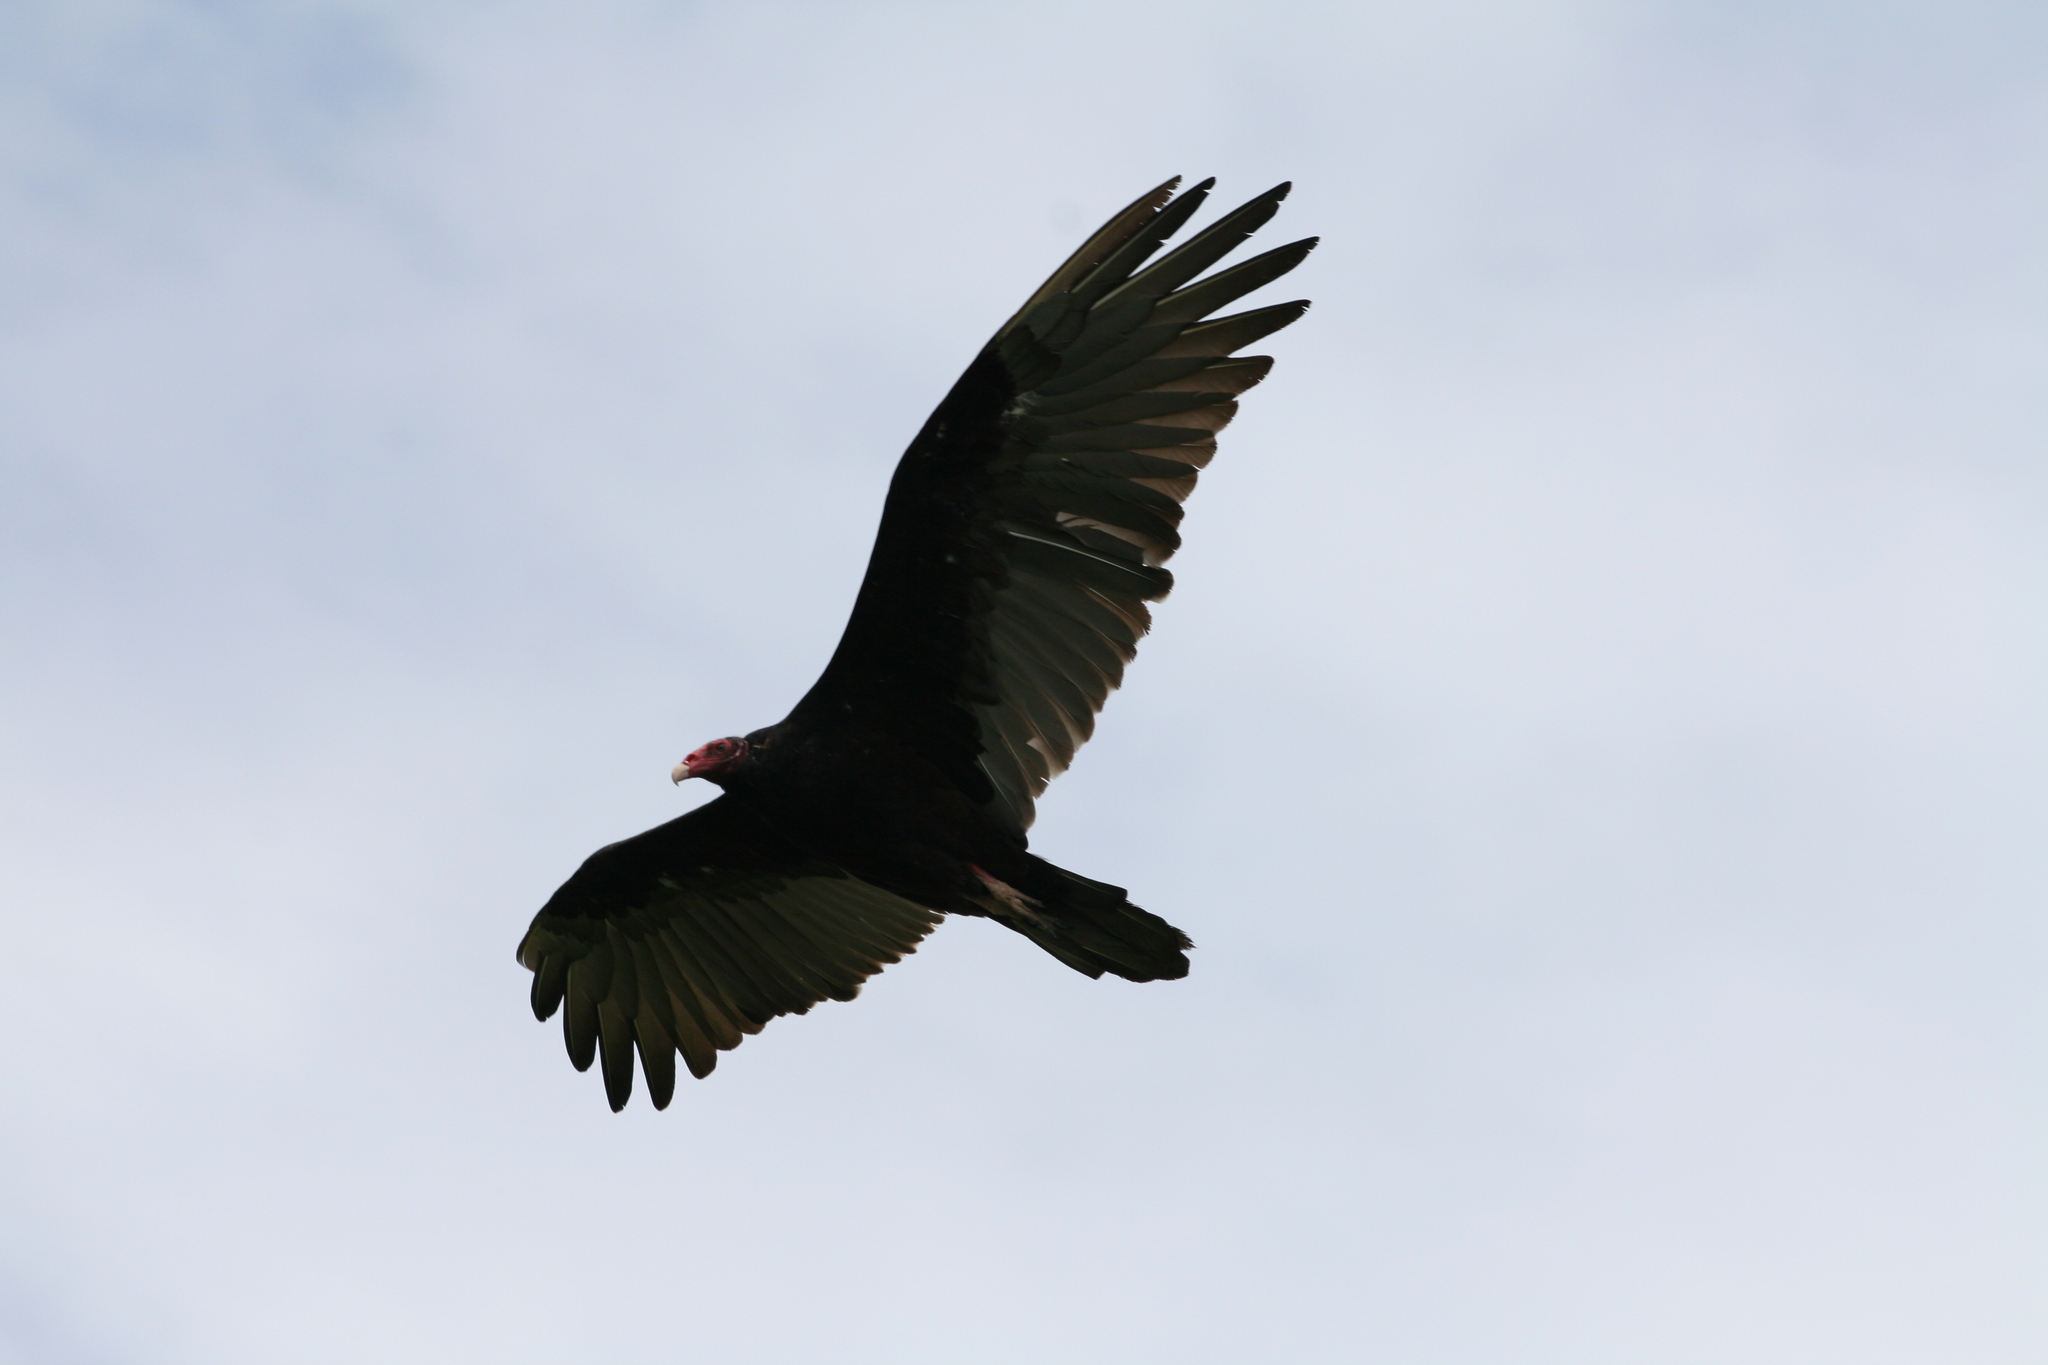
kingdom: Animalia
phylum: Chordata
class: Aves
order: Accipitriformes
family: Cathartidae
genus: Cathartes
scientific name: Cathartes aura
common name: Turkey vulture
